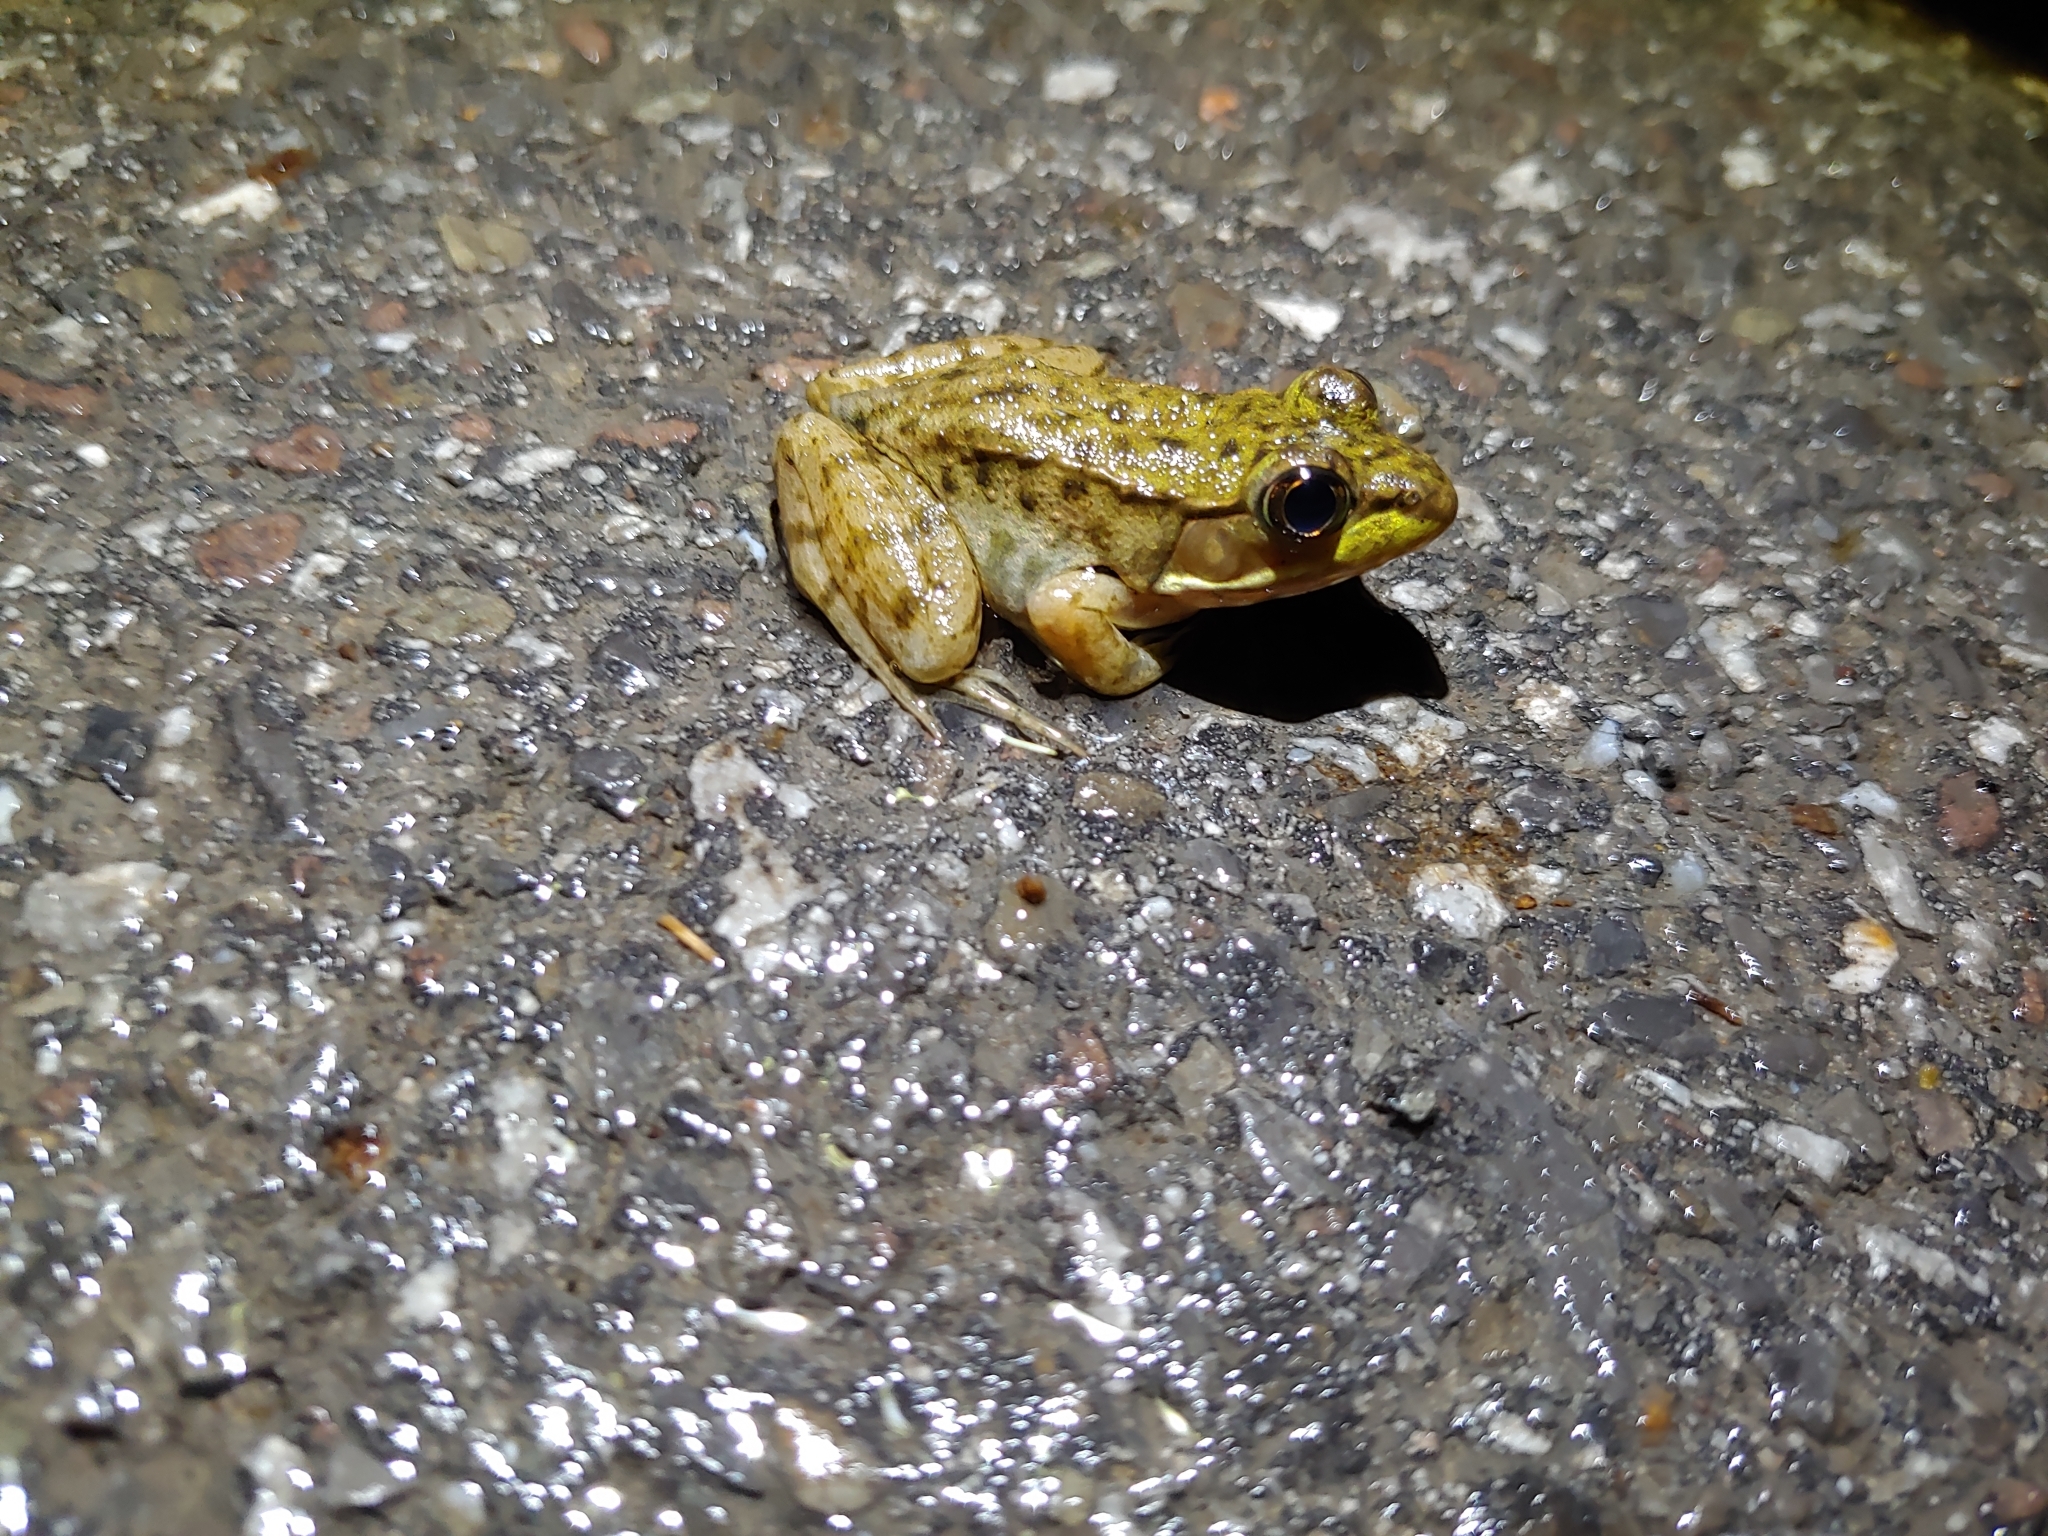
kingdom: Animalia
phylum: Chordata
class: Amphibia
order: Anura
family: Ranidae
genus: Lithobates
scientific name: Lithobates clamitans
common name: Green frog
